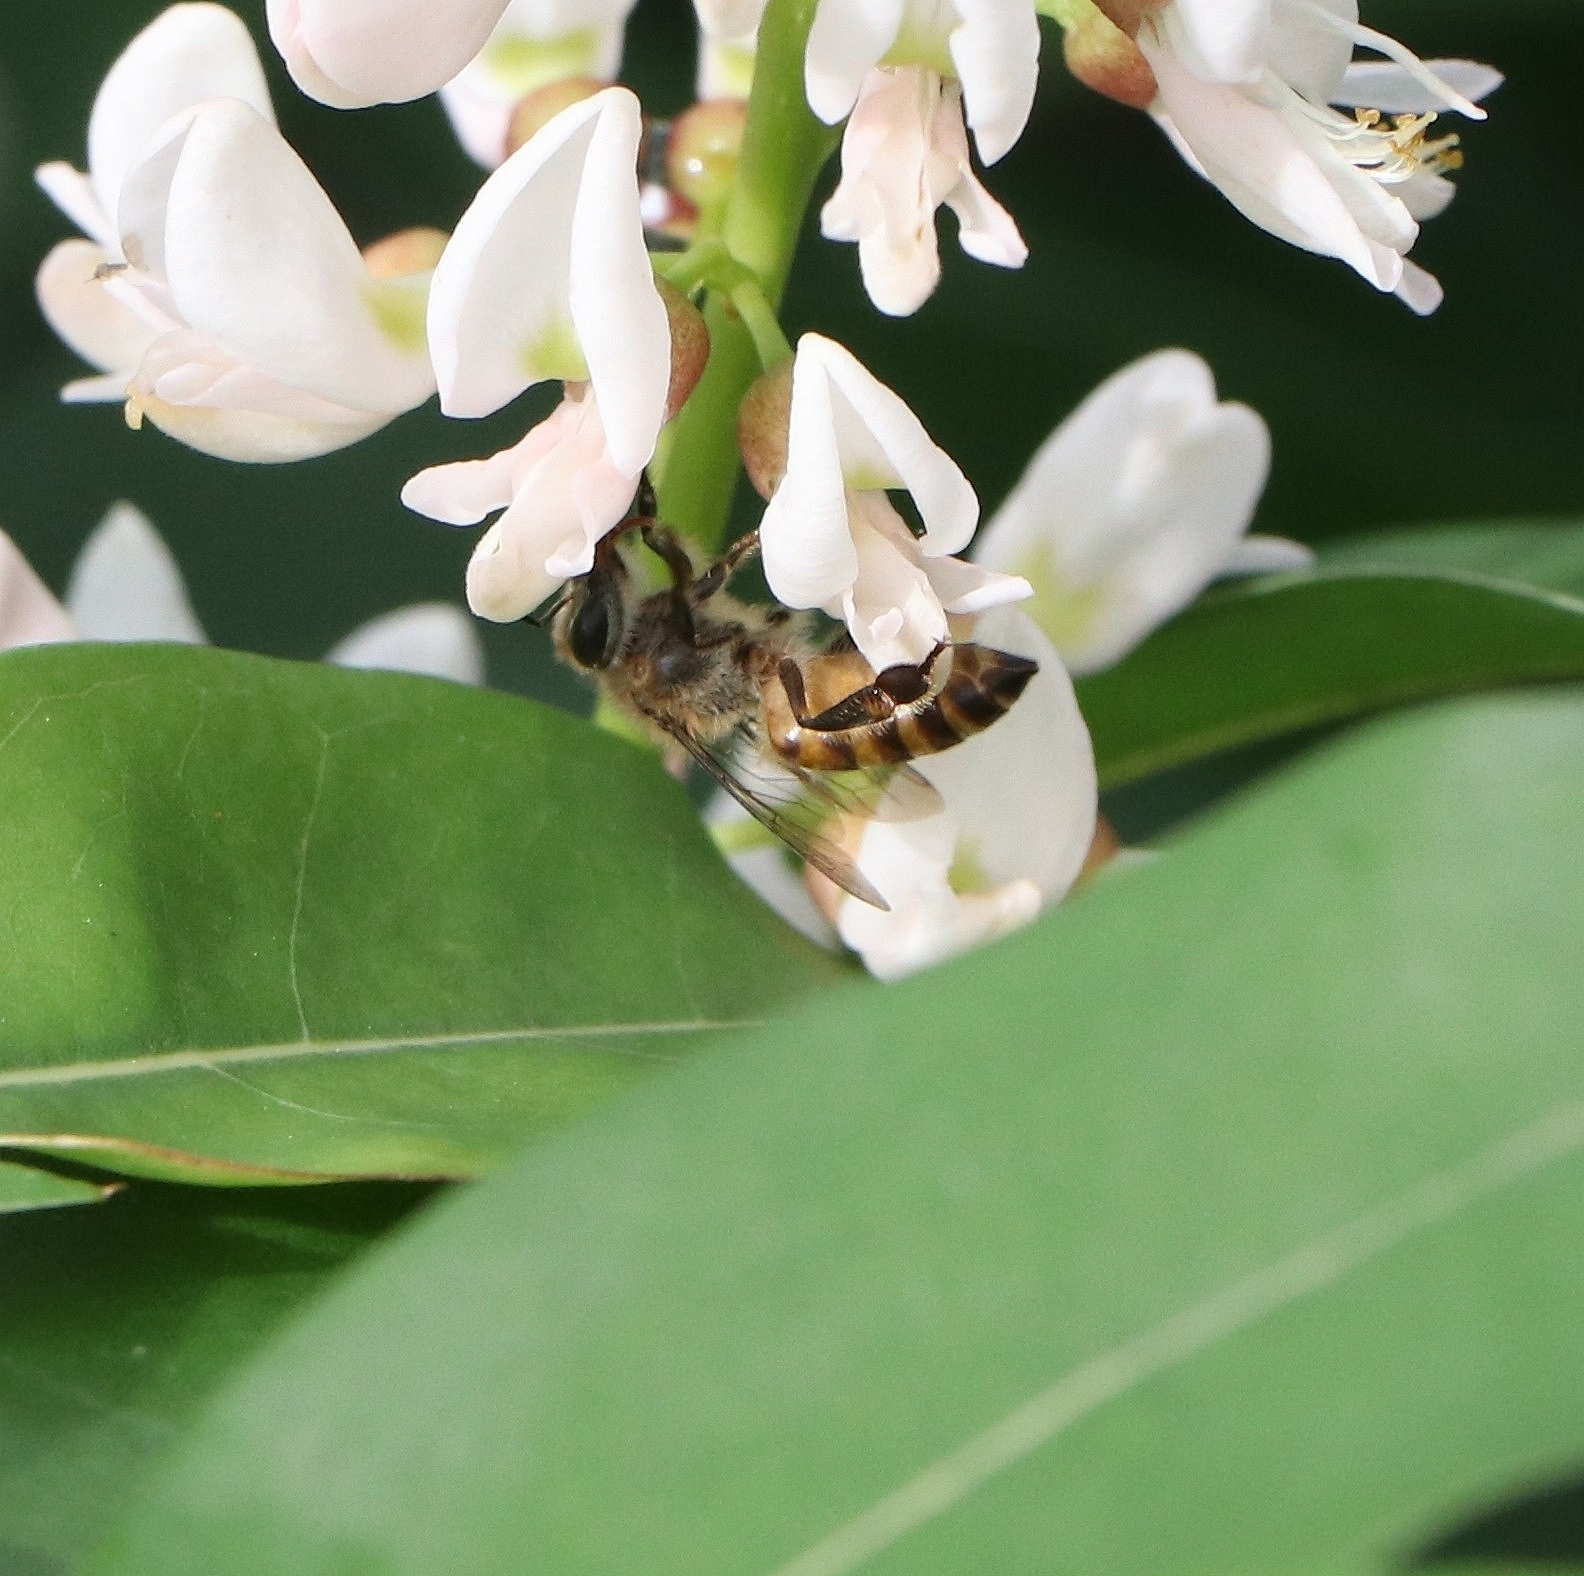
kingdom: Animalia
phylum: Arthropoda
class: Insecta
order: Hymenoptera
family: Apidae
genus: Apis
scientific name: Apis cerana
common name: Honey bee
